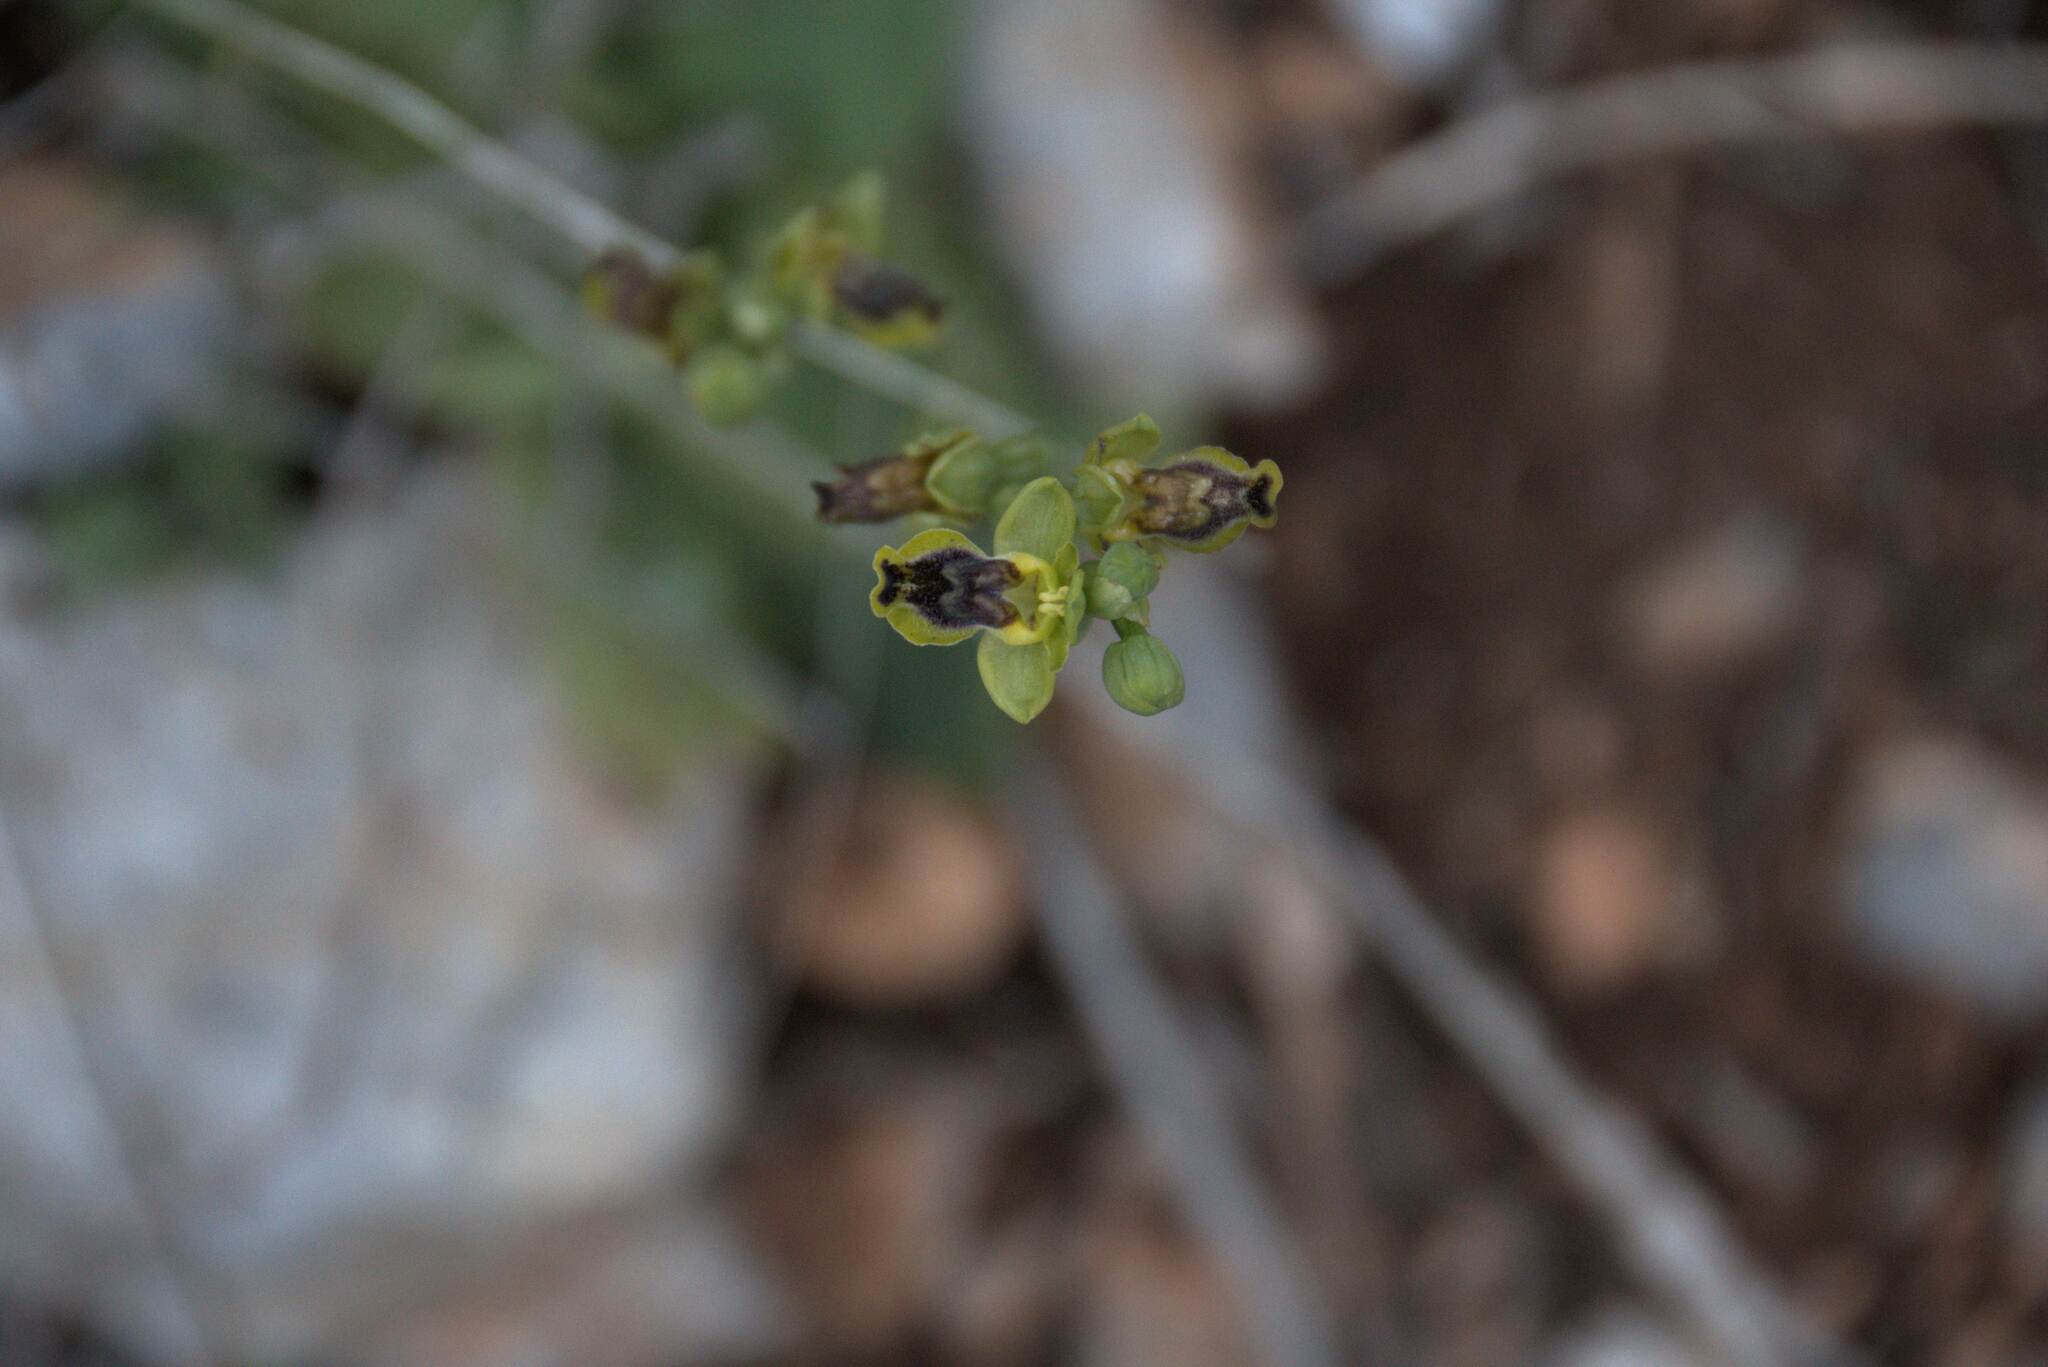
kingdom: Plantae
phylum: Tracheophyta
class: Liliopsida
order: Asparagales
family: Orchidaceae
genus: Ophrys
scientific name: Ophrys lutea
